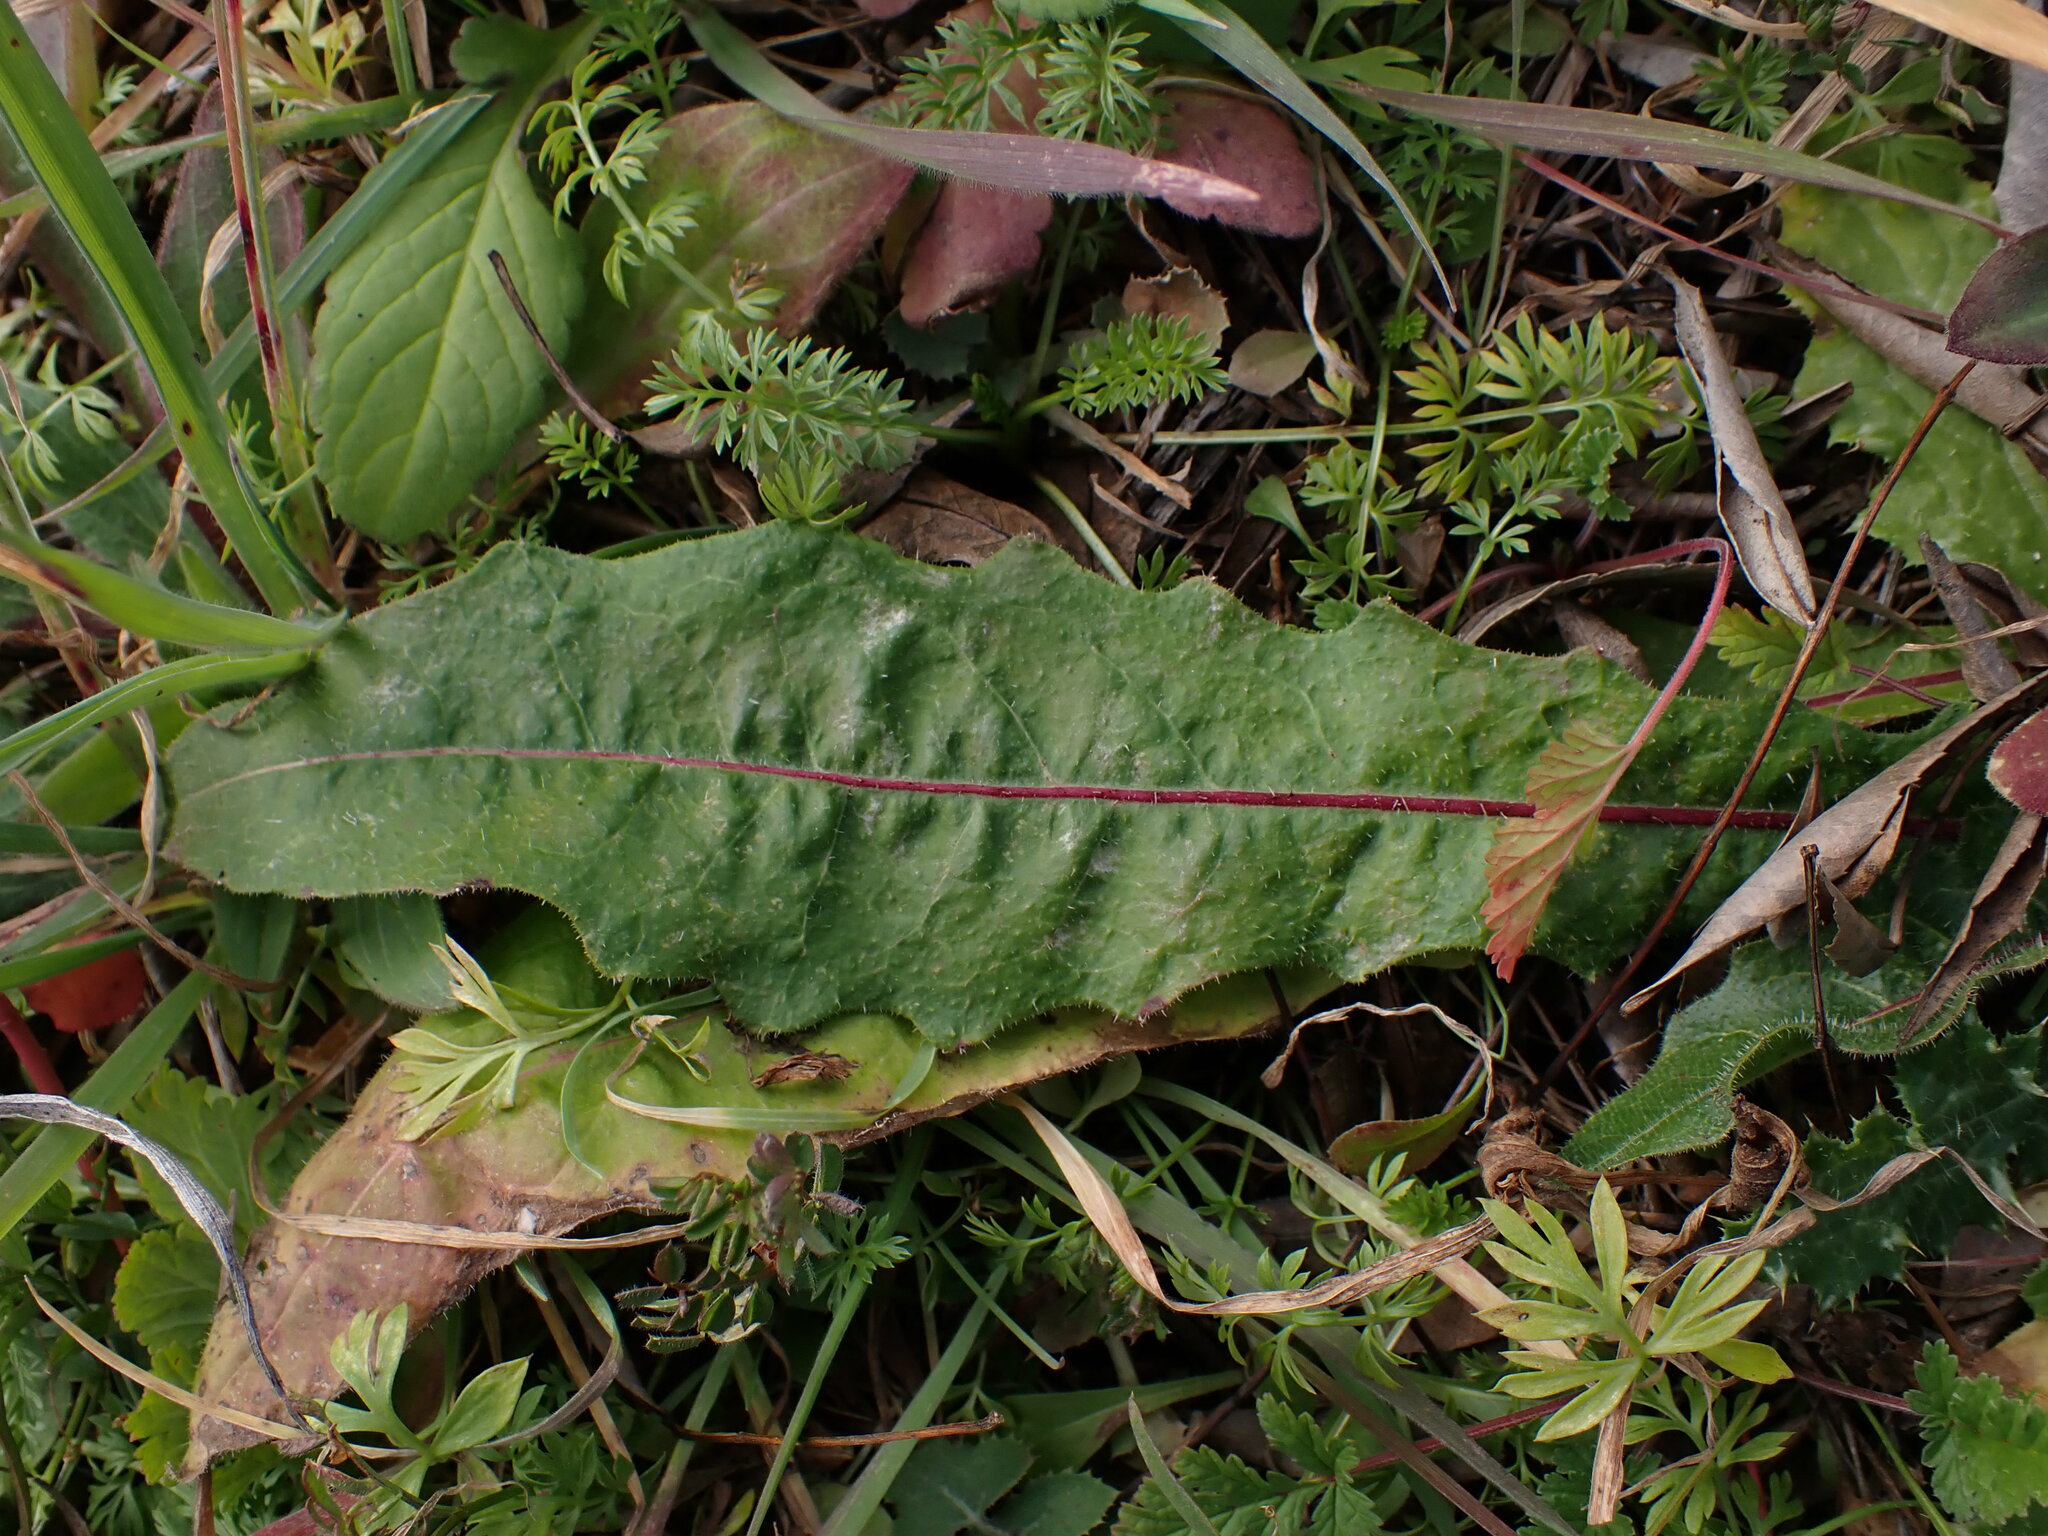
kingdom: Plantae
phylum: Tracheophyta
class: Magnoliopsida
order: Asterales
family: Asteraceae
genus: Picris
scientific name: Picris hieracioides
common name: Hawkweed oxtongue
